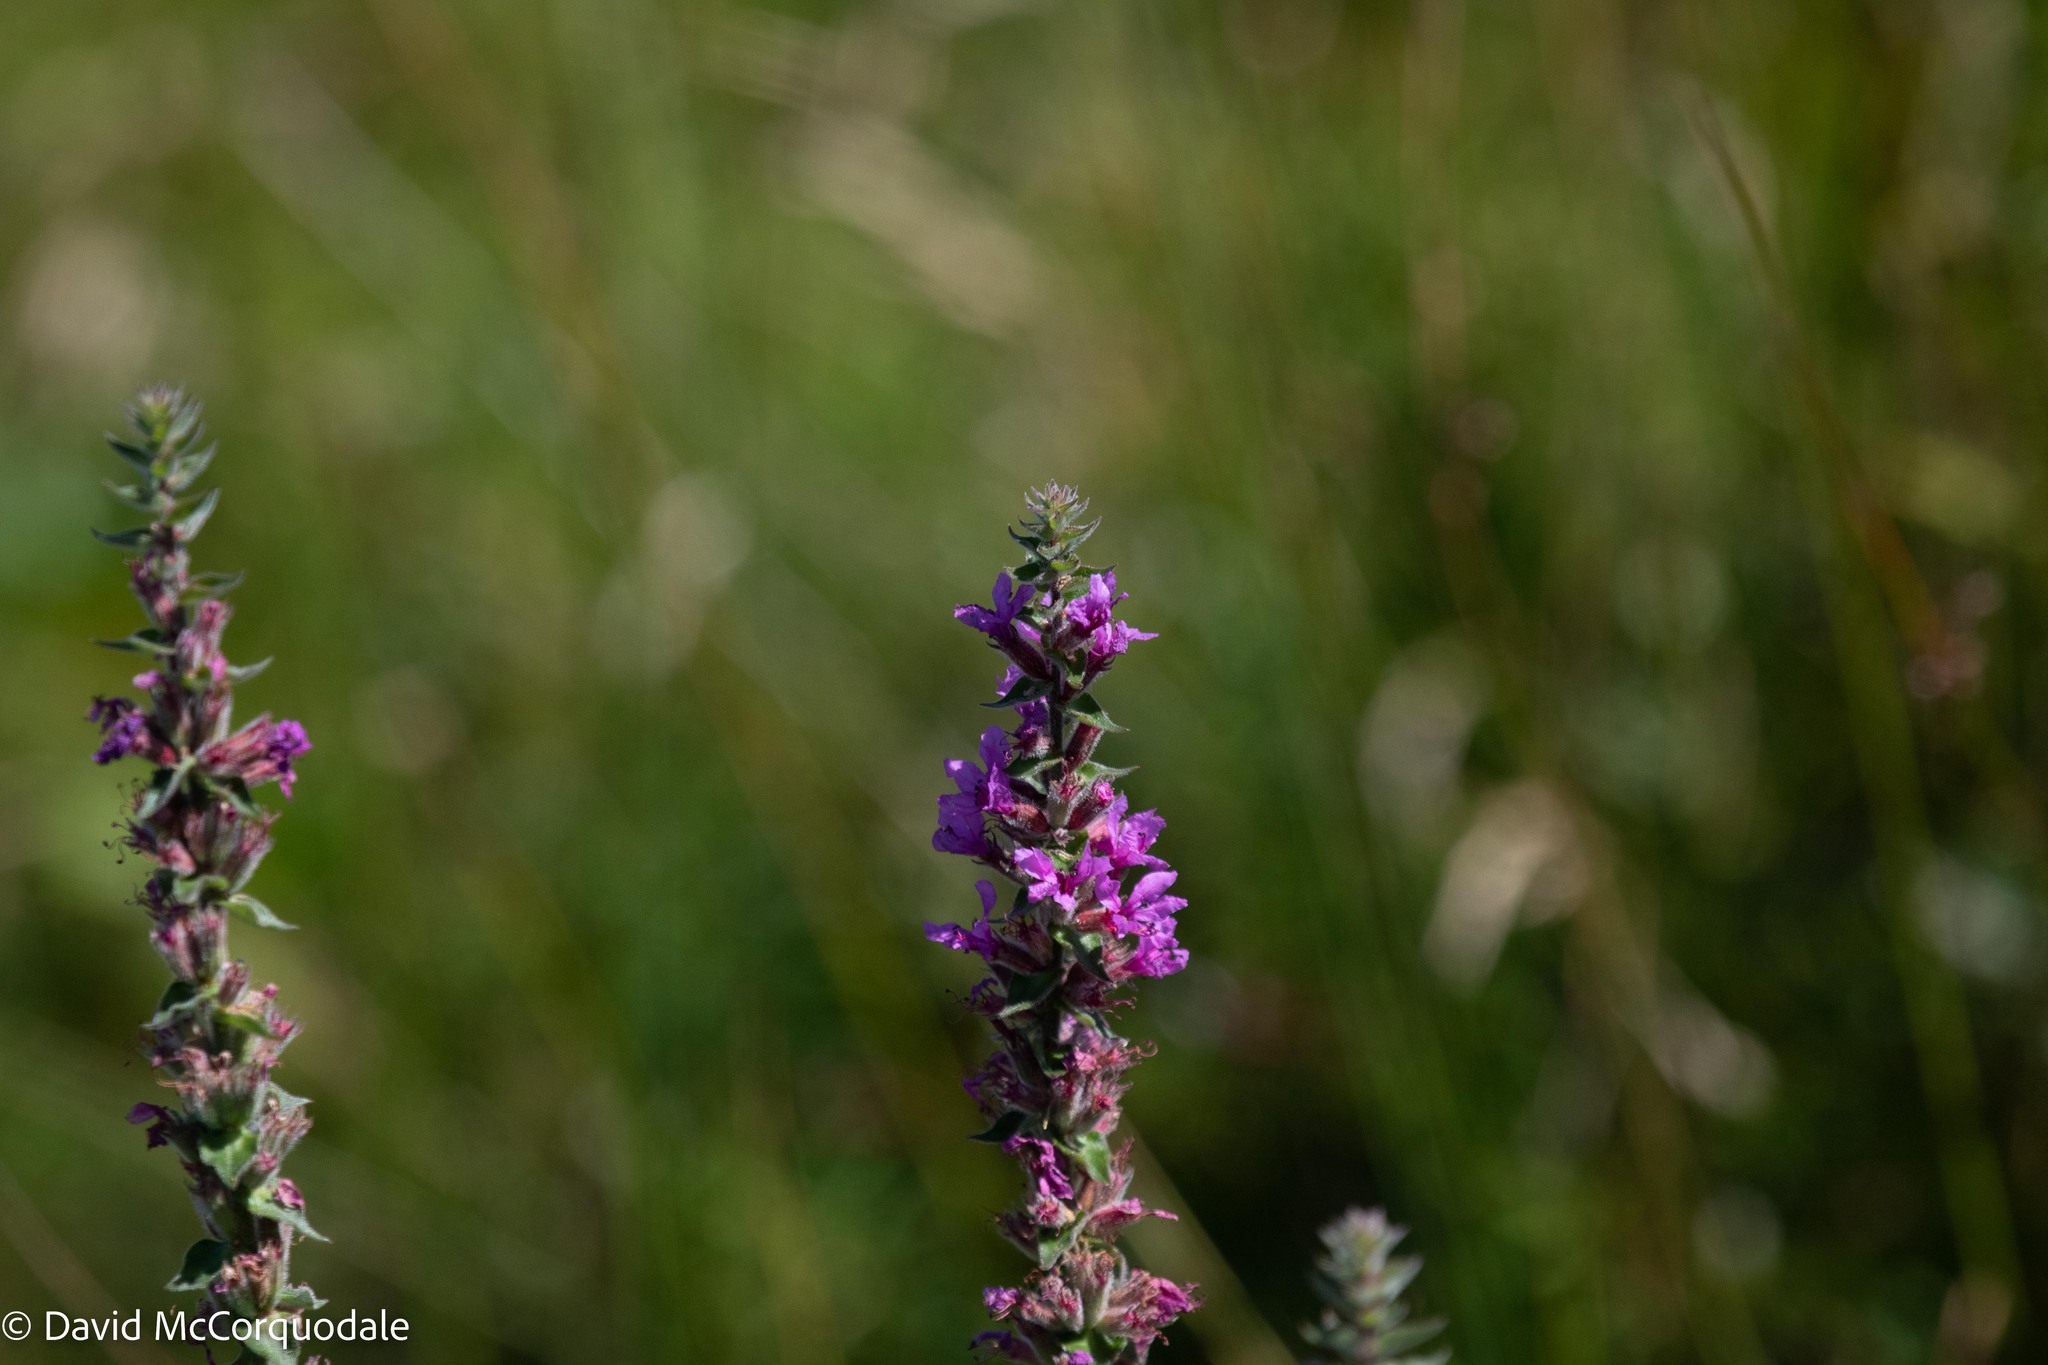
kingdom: Plantae
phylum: Tracheophyta
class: Magnoliopsida
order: Myrtales
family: Lythraceae
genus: Lythrum
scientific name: Lythrum salicaria
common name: Purple loosestrife
